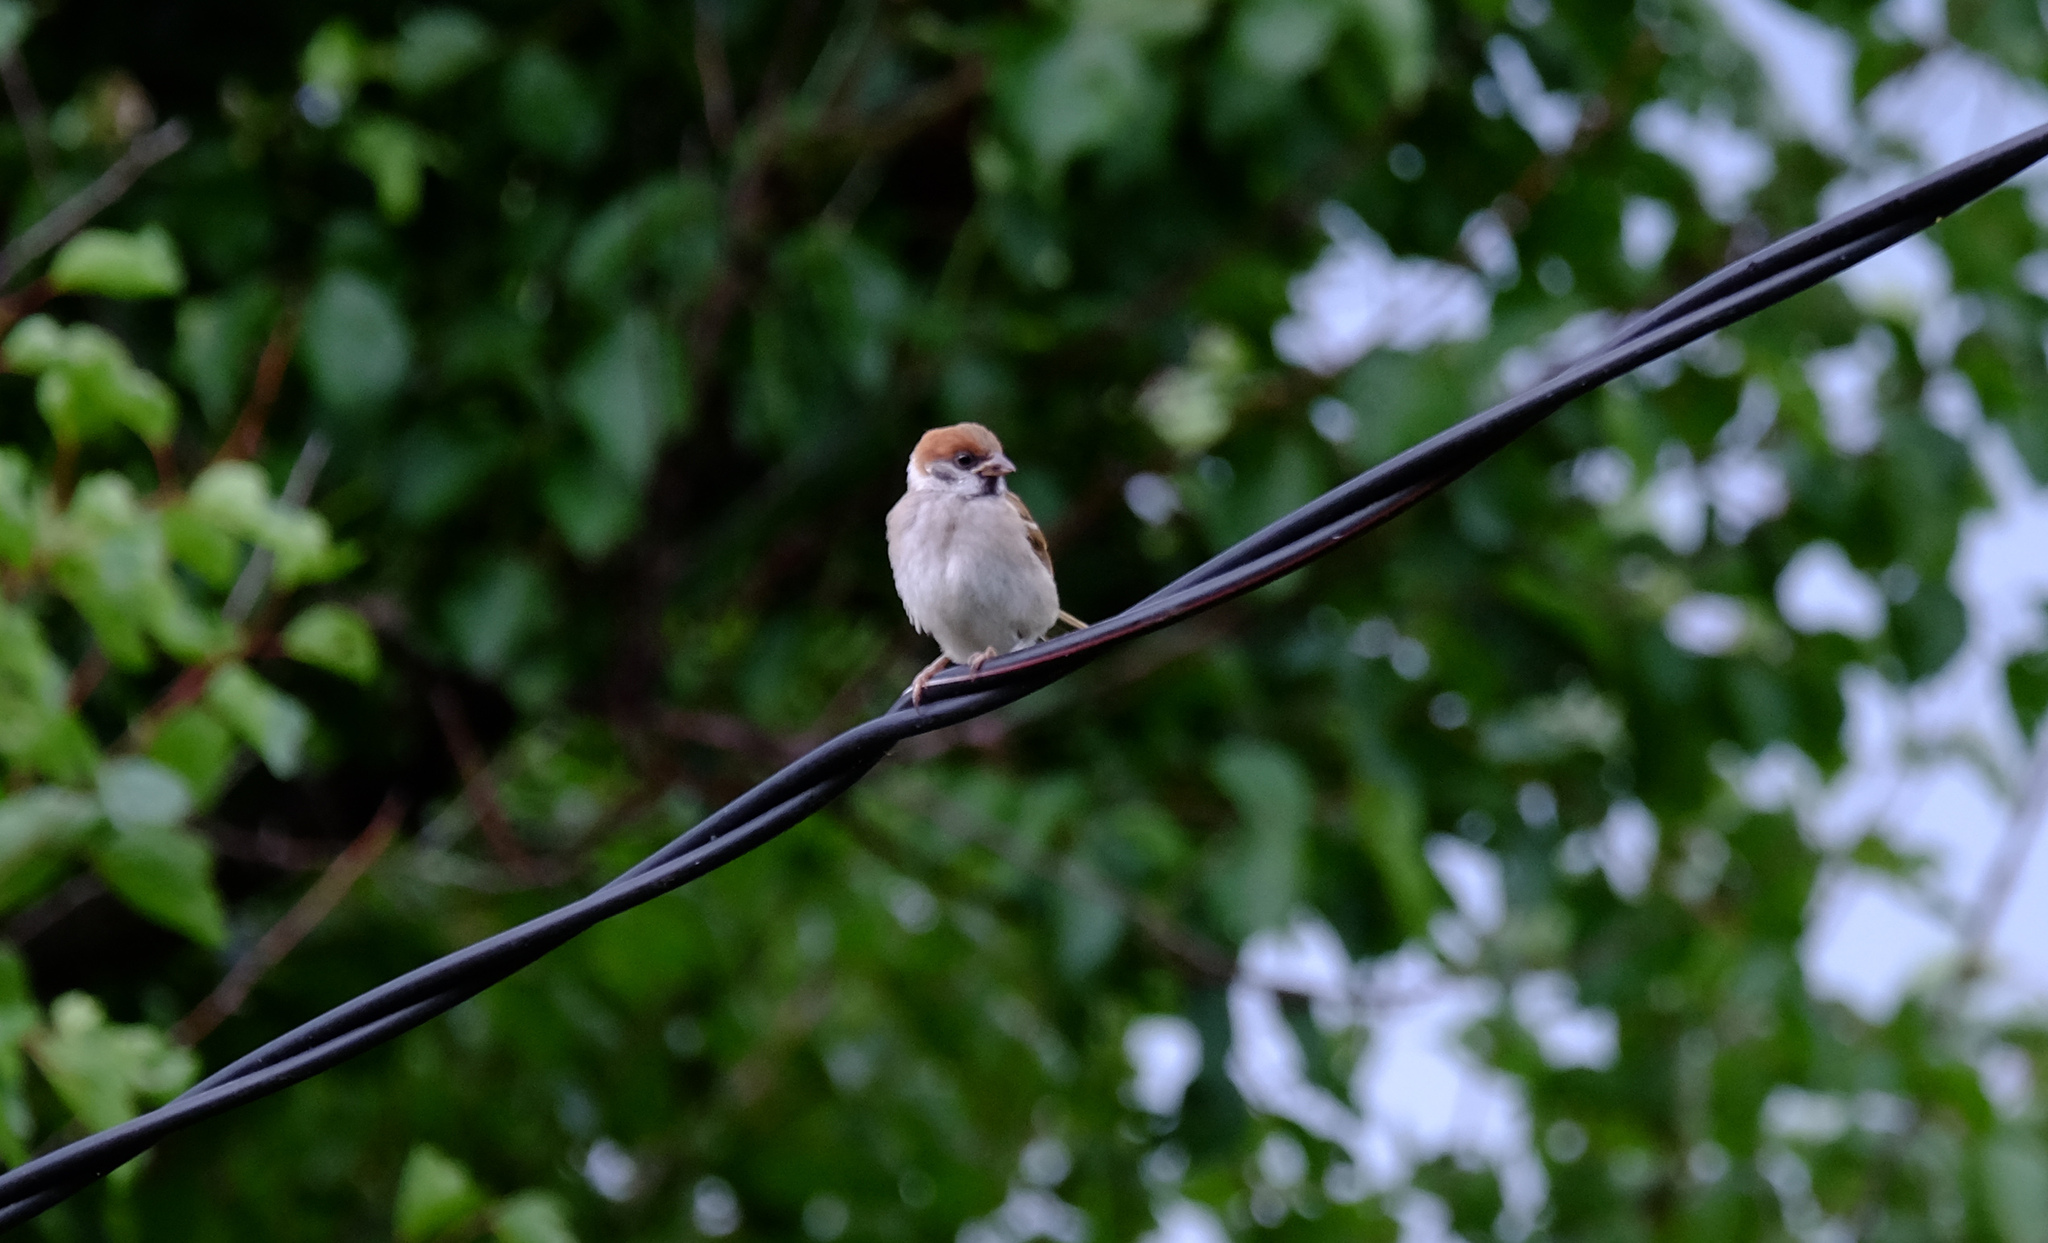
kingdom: Animalia
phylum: Chordata
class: Aves
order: Passeriformes
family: Passeridae
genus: Passer
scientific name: Passer montanus
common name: Eurasian tree sparrow
